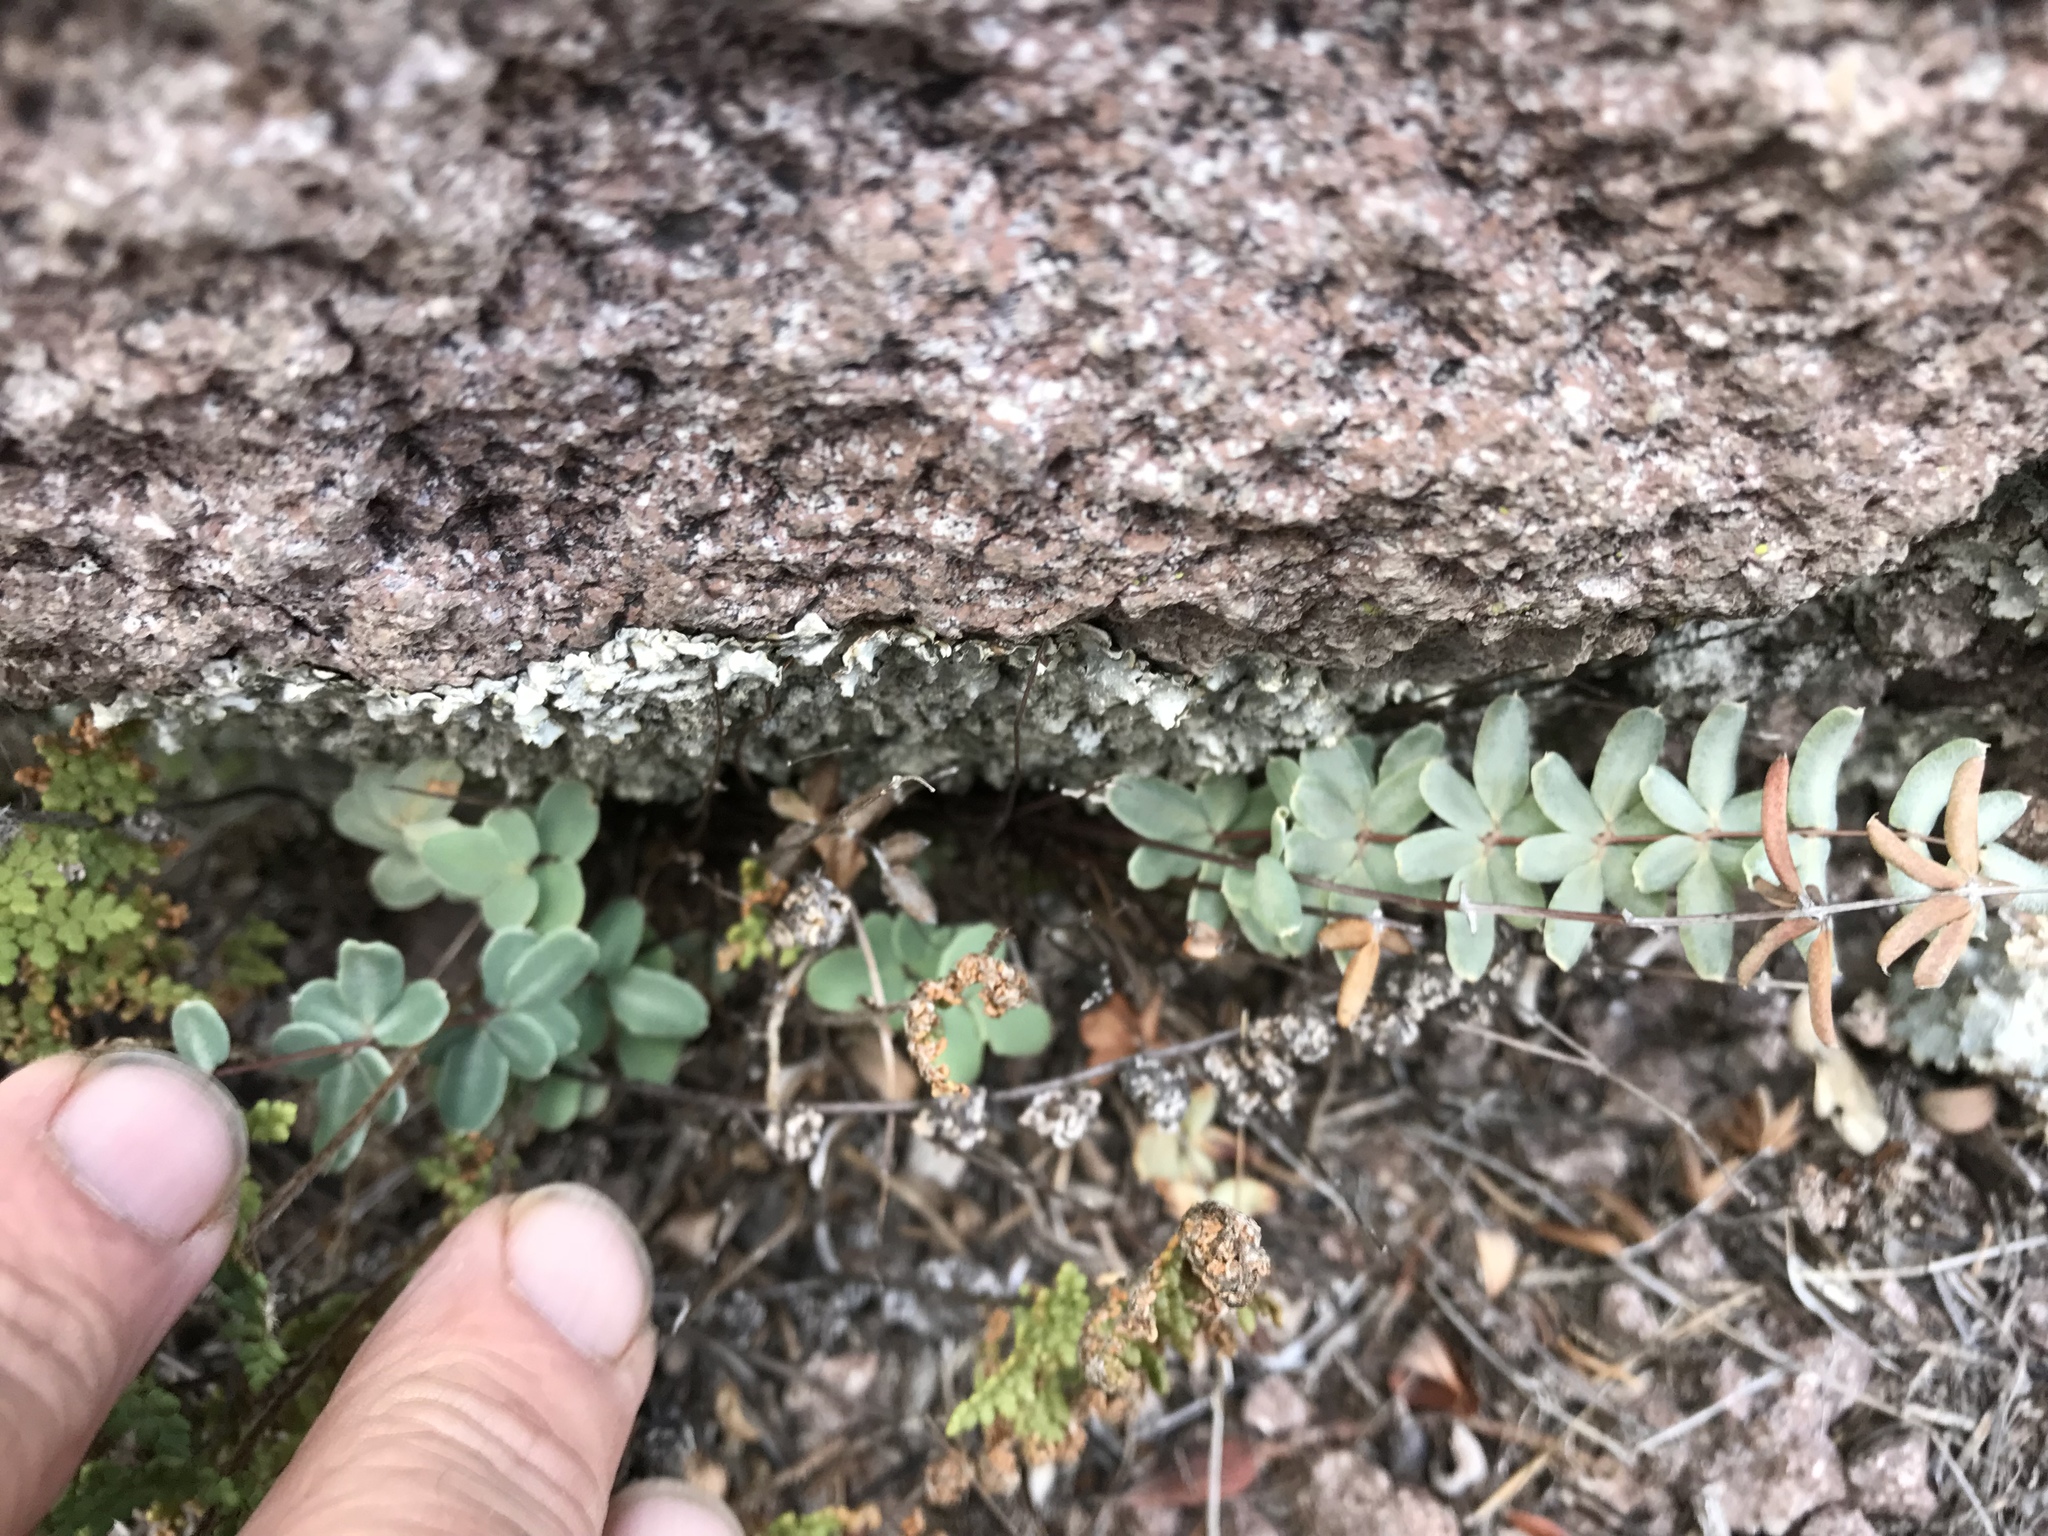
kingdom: Plantae
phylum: Tracheophyta
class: Polypodiopsida
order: Polypodiales
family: Pteridaceae
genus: Pellaea
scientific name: Pellaea wrightiana
